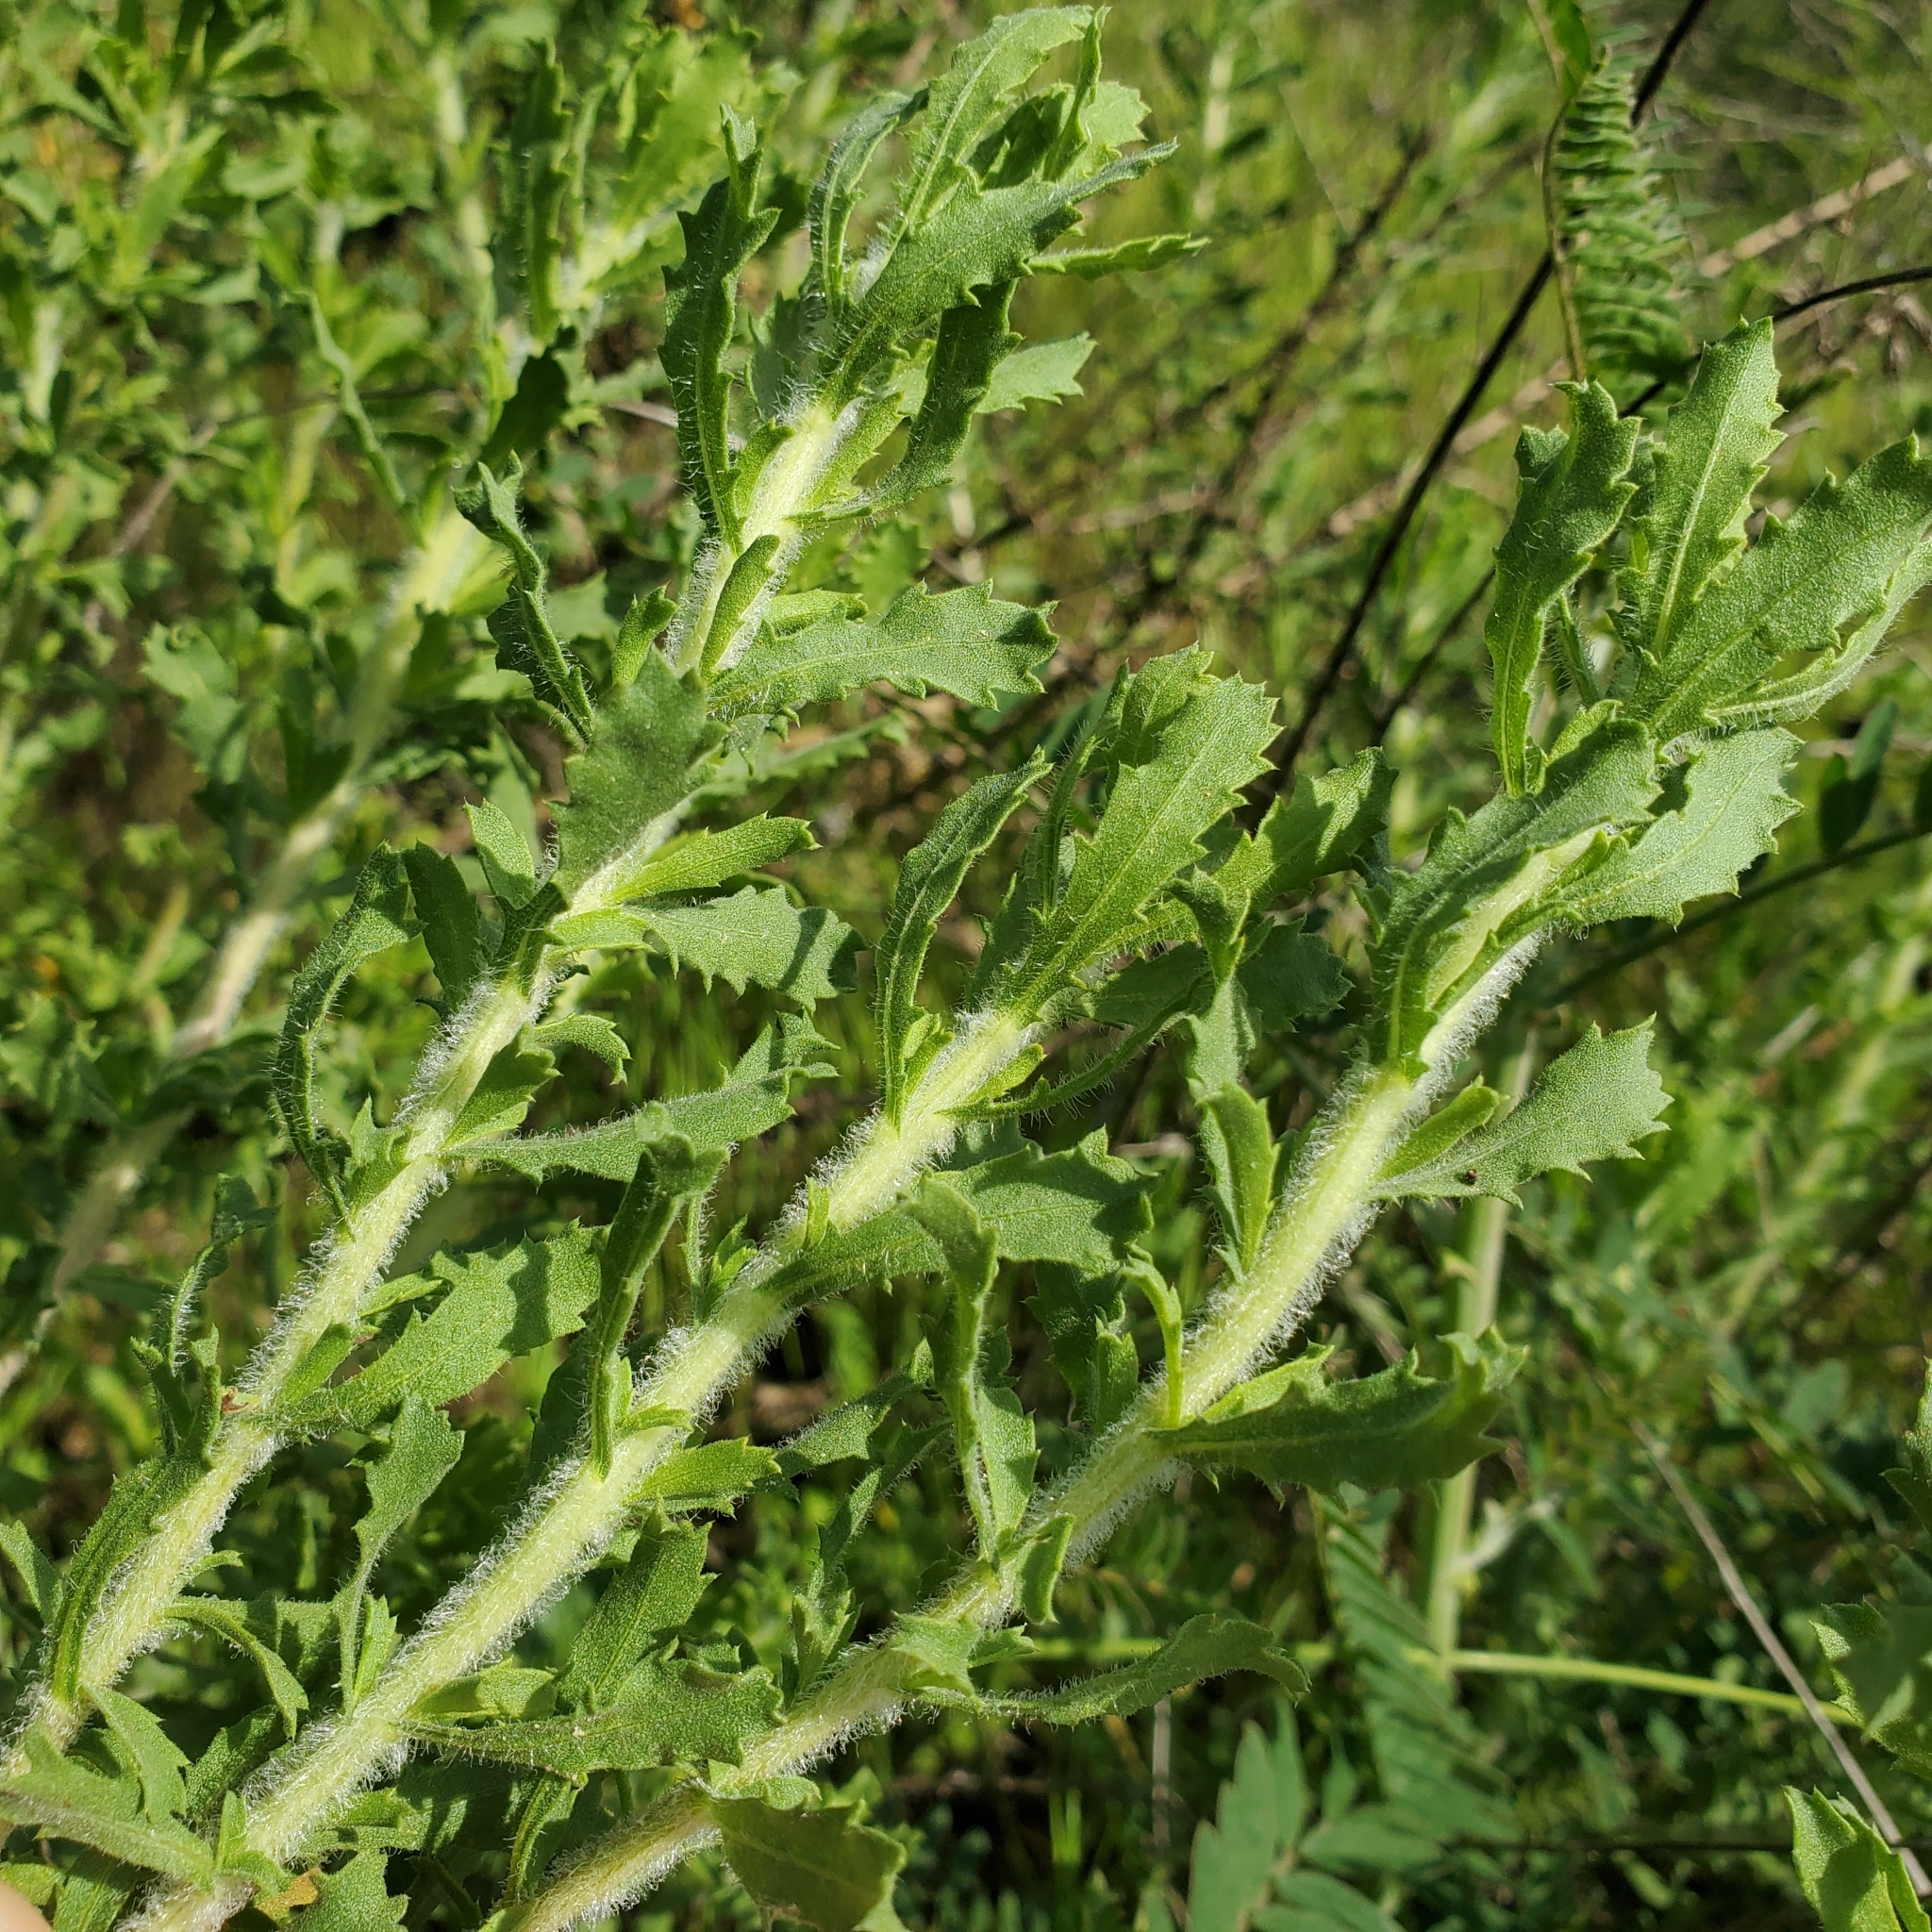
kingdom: Plantae
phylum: Tracheophyta
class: Magnoliopsida
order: Asterales
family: Asteraceae
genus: Isocoma
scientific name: Isocoma menziesii
